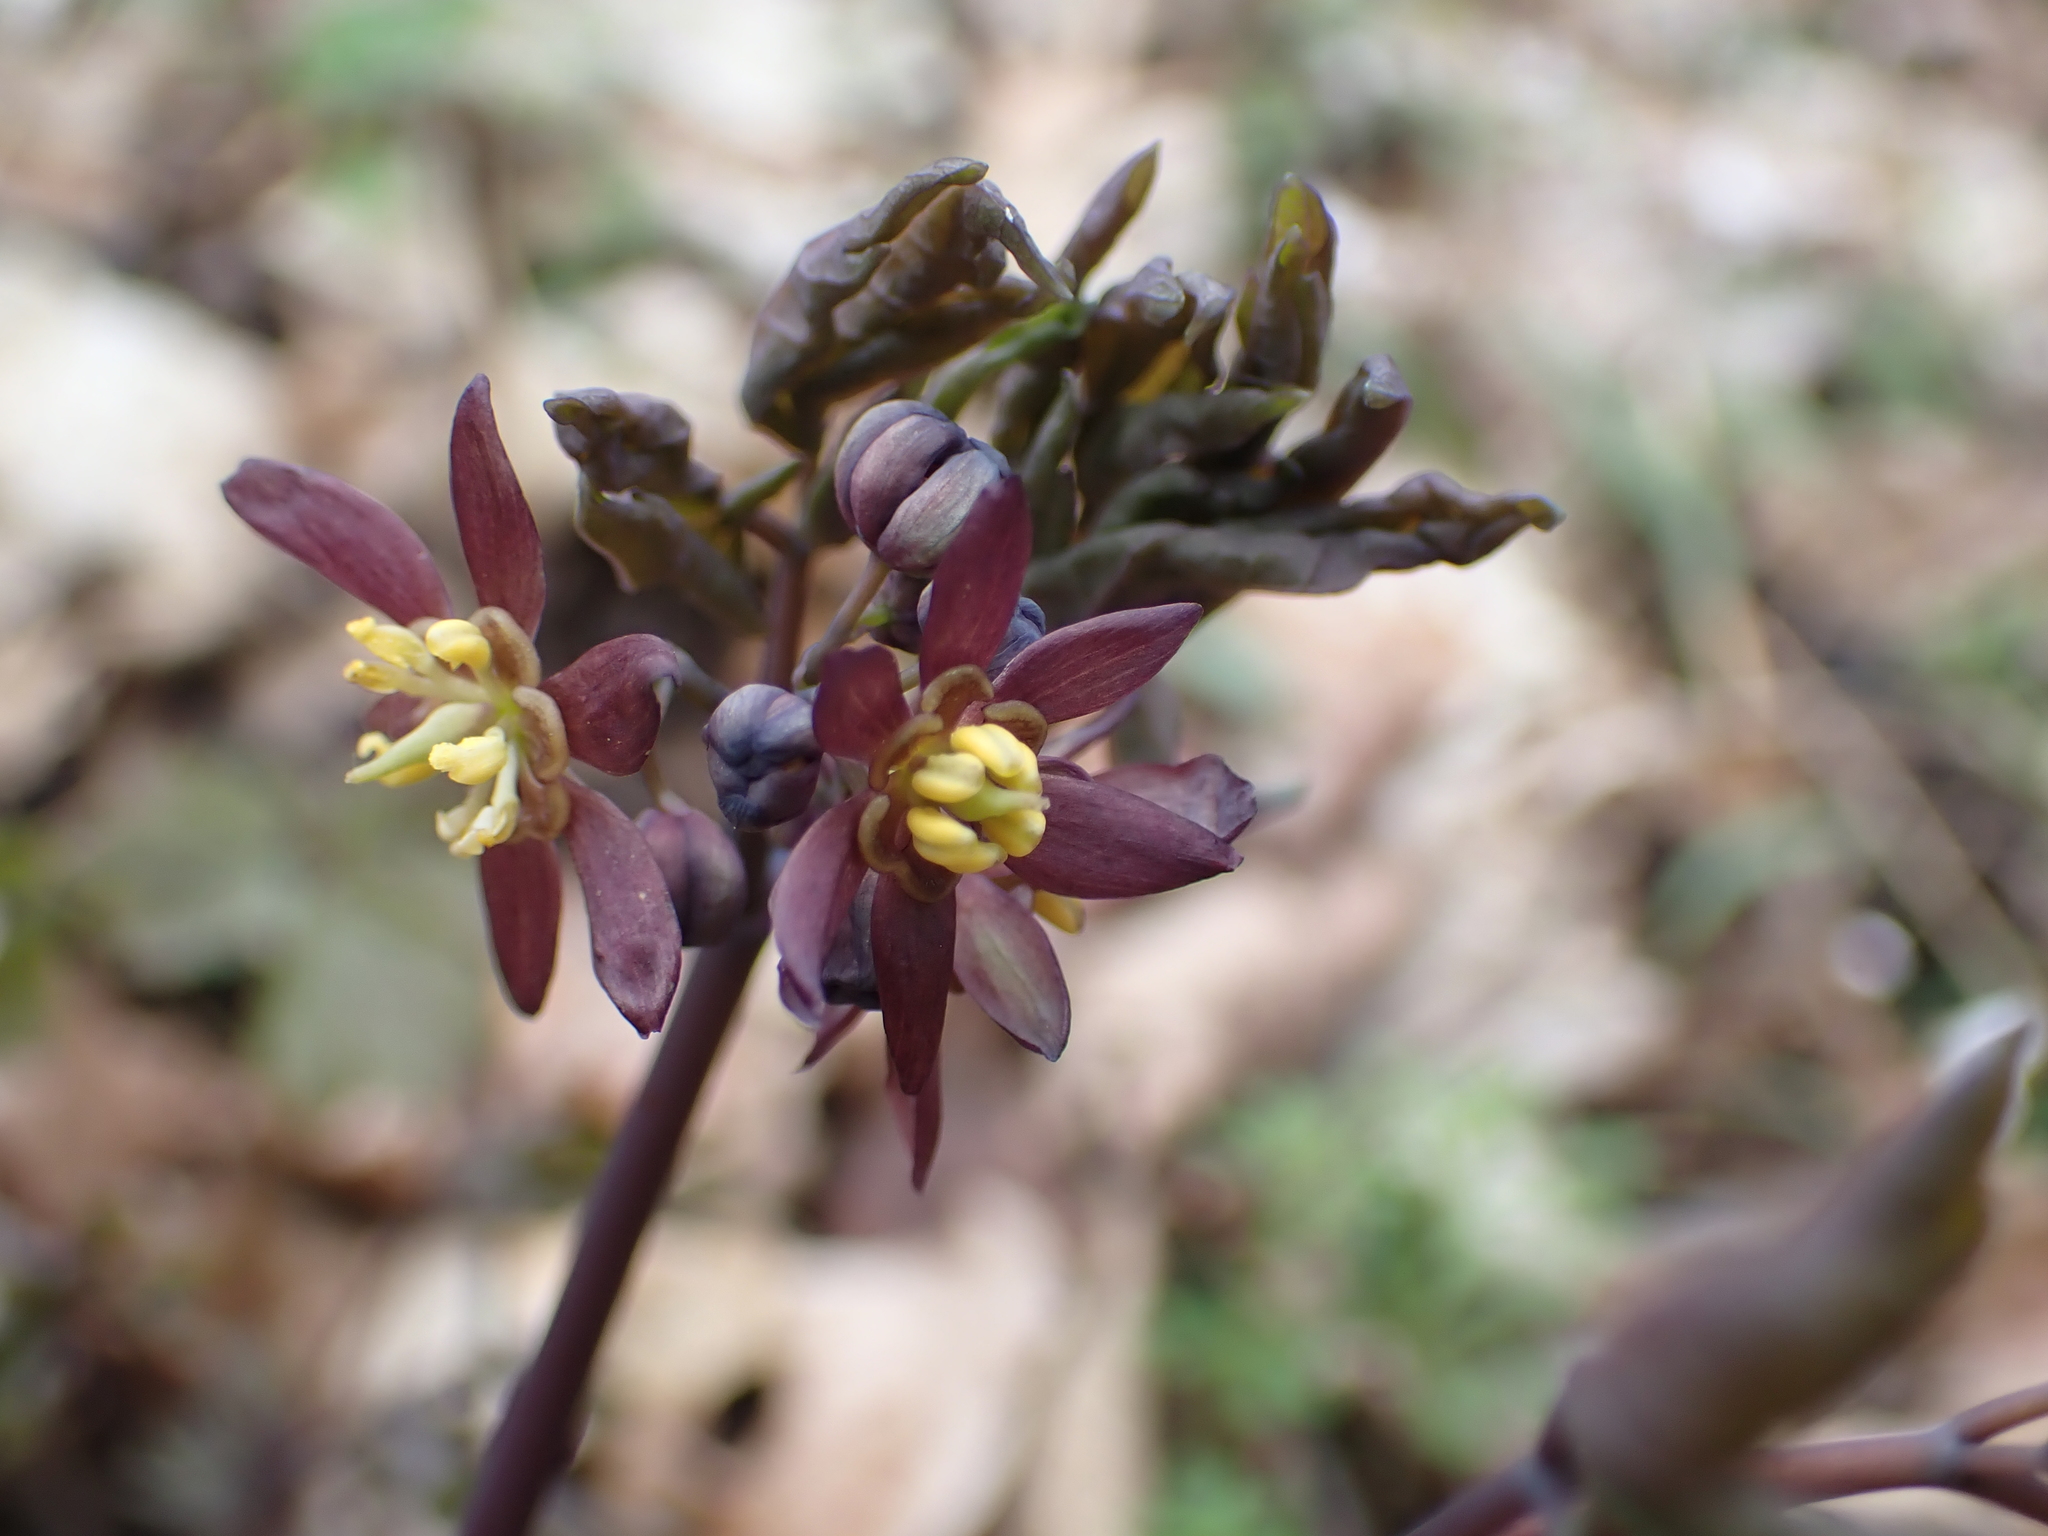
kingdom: Plantae
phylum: Tracheophyta
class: Magnoliopsida
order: Ranunculales
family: Berberidaceae
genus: Caulophyllum
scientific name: Caulophyllum giganteum
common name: Blue cohosh
